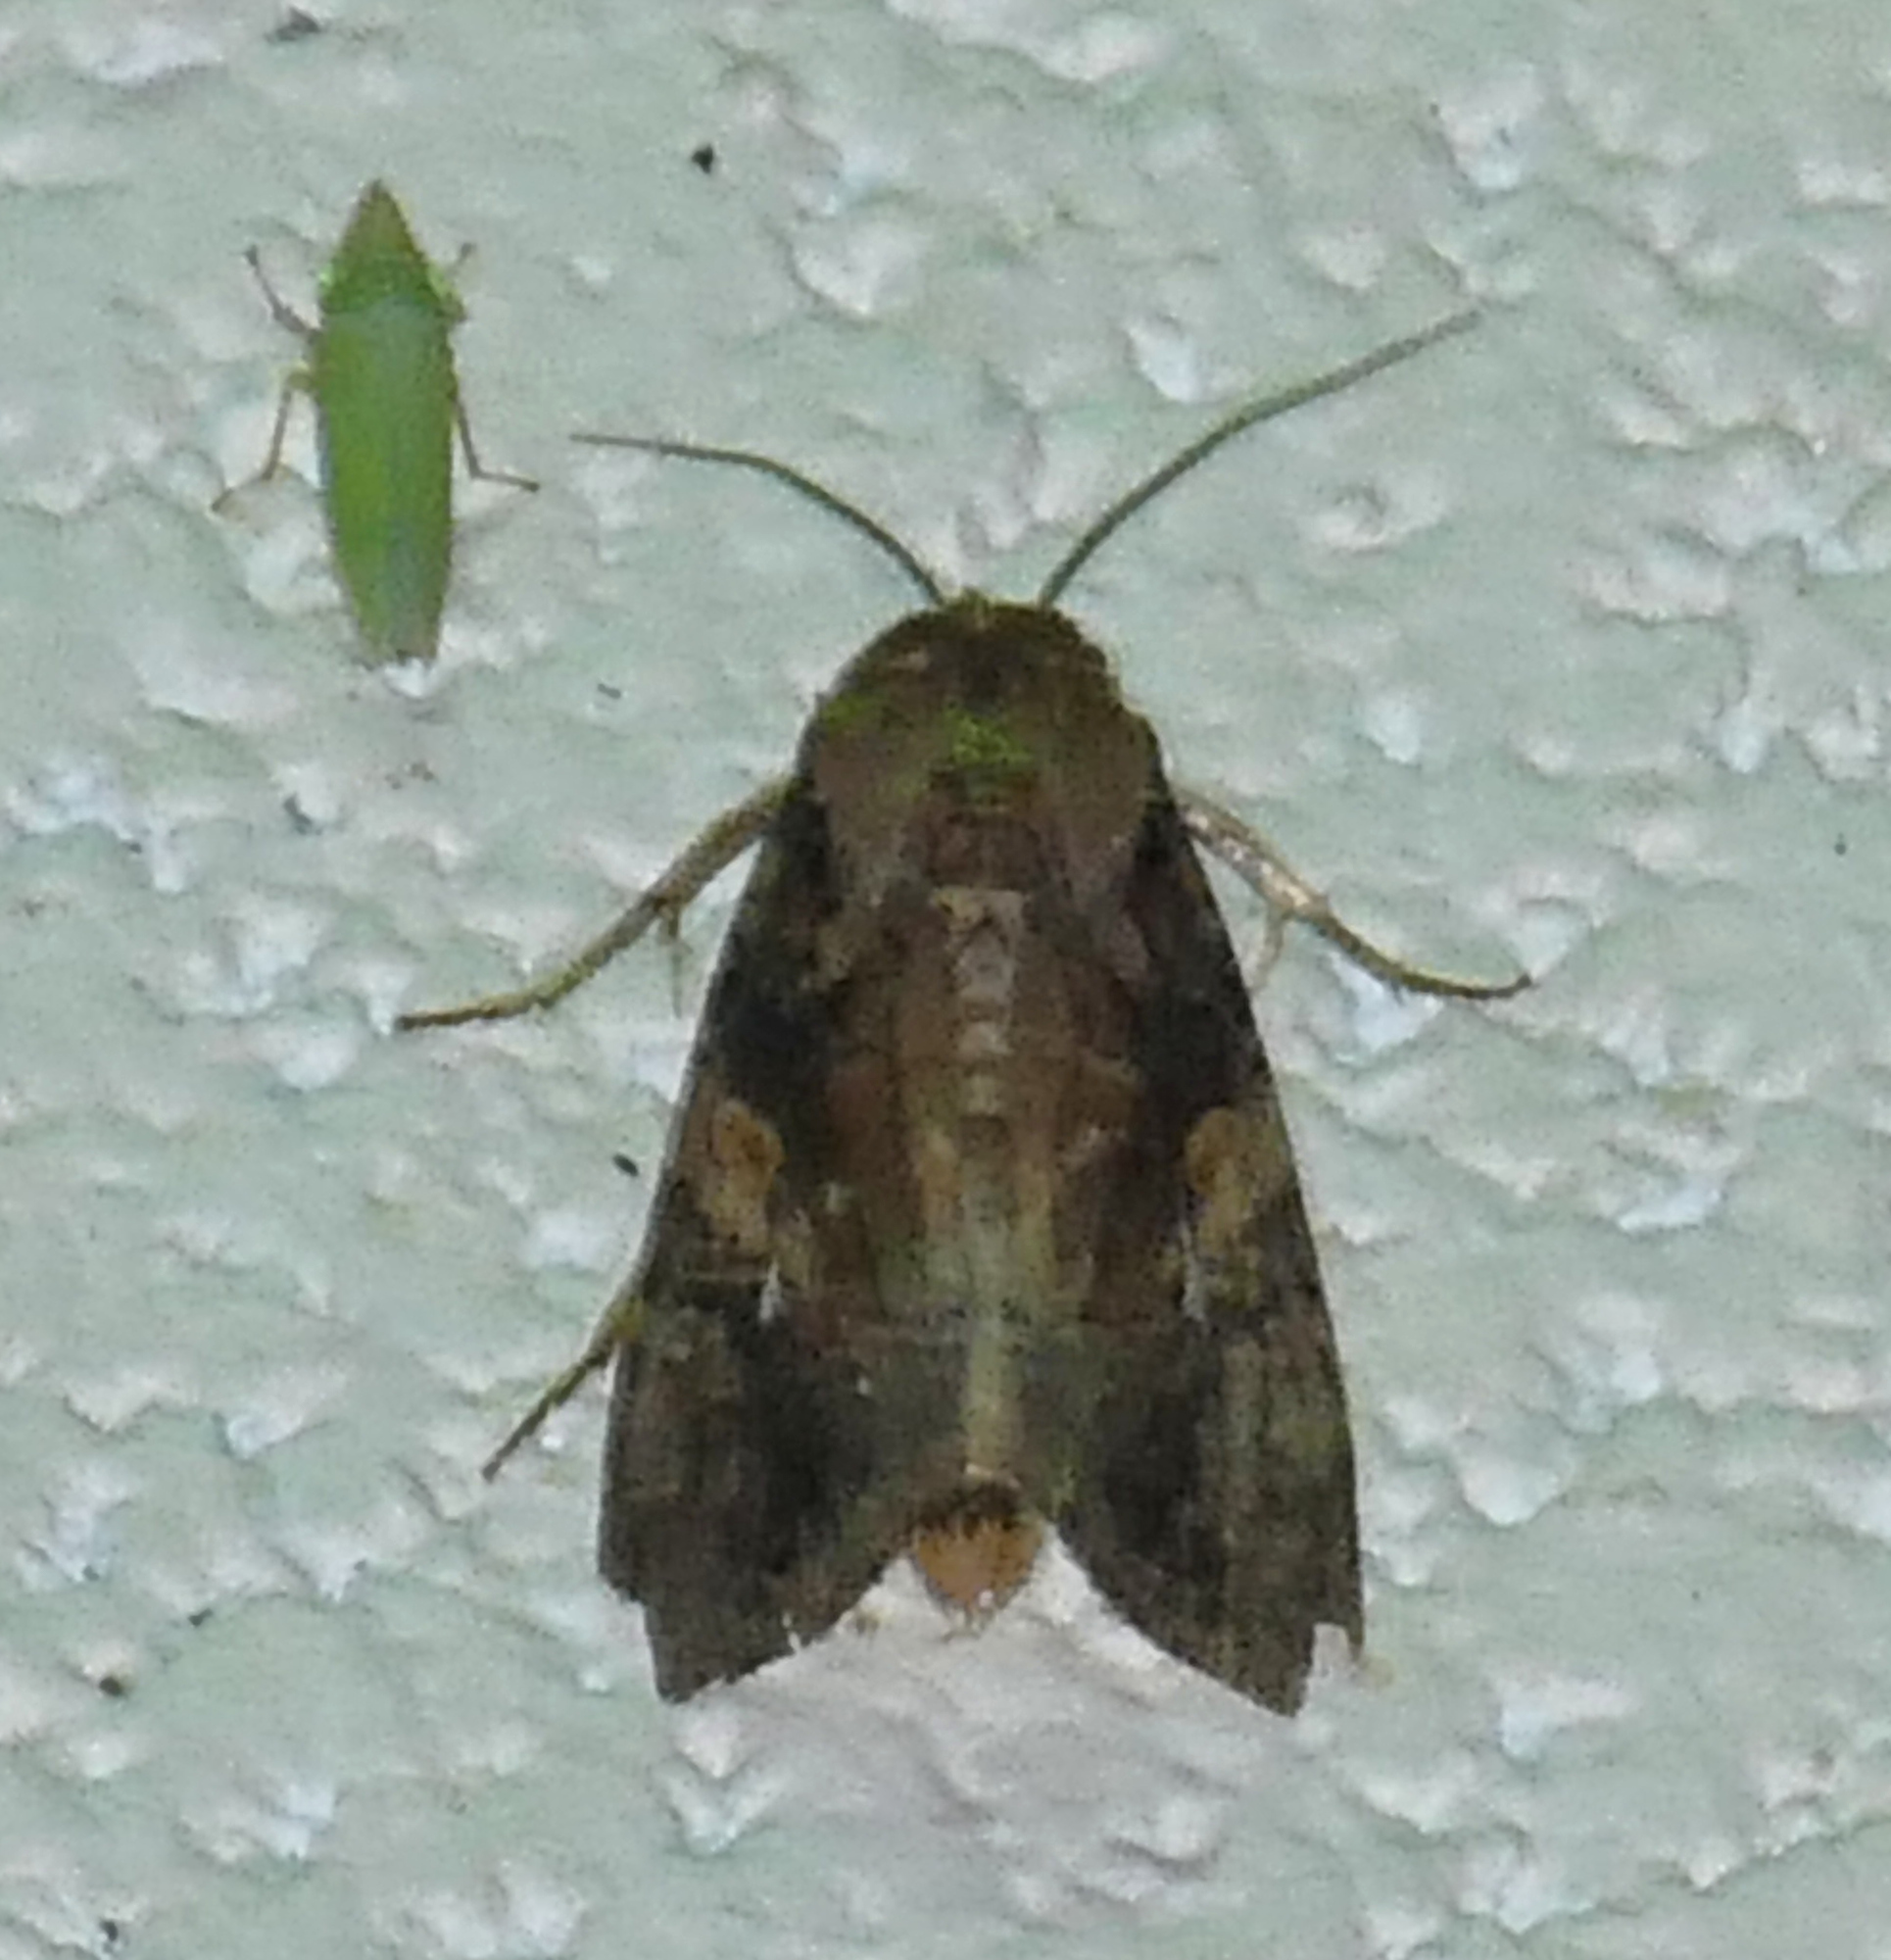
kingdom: Animalia
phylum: Arthropoda
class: Insecta
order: Lepidoptera
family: Noctuidae
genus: Spodoptera
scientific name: Spodoptera frugiperda
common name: Fall armyworm
